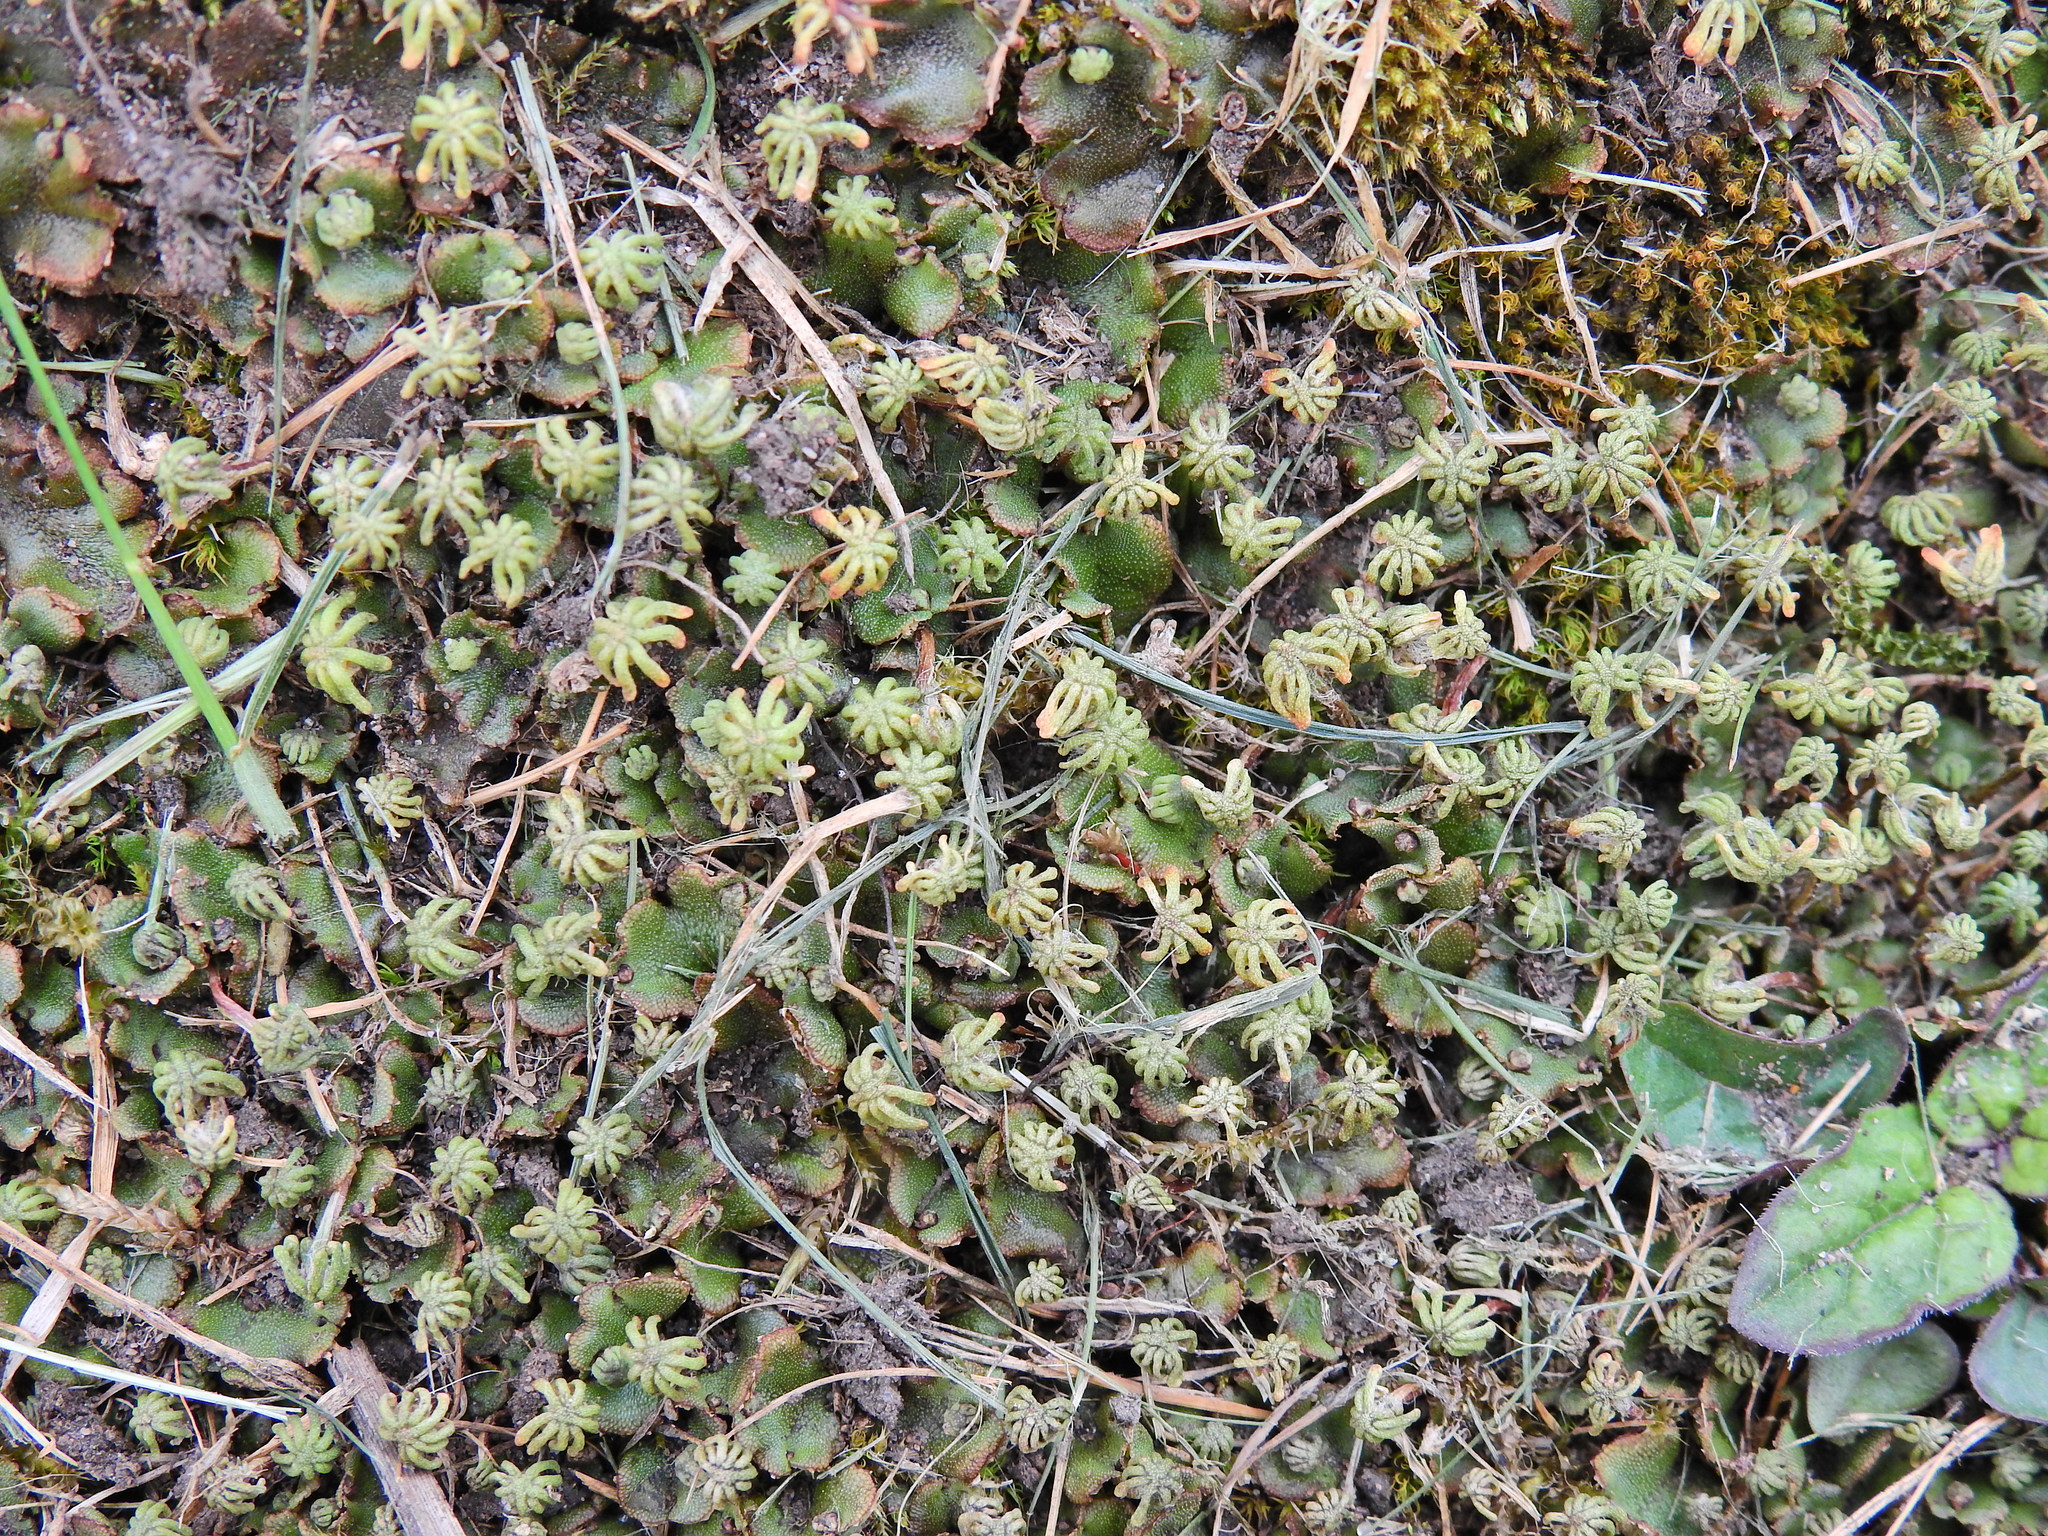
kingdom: Plantae
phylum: Marchantiophyta
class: Marchantiopsida
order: Marchantiales
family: Marchantiaceae
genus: Marchantia
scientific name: Marchantia polymorpha
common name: Common liverwort
